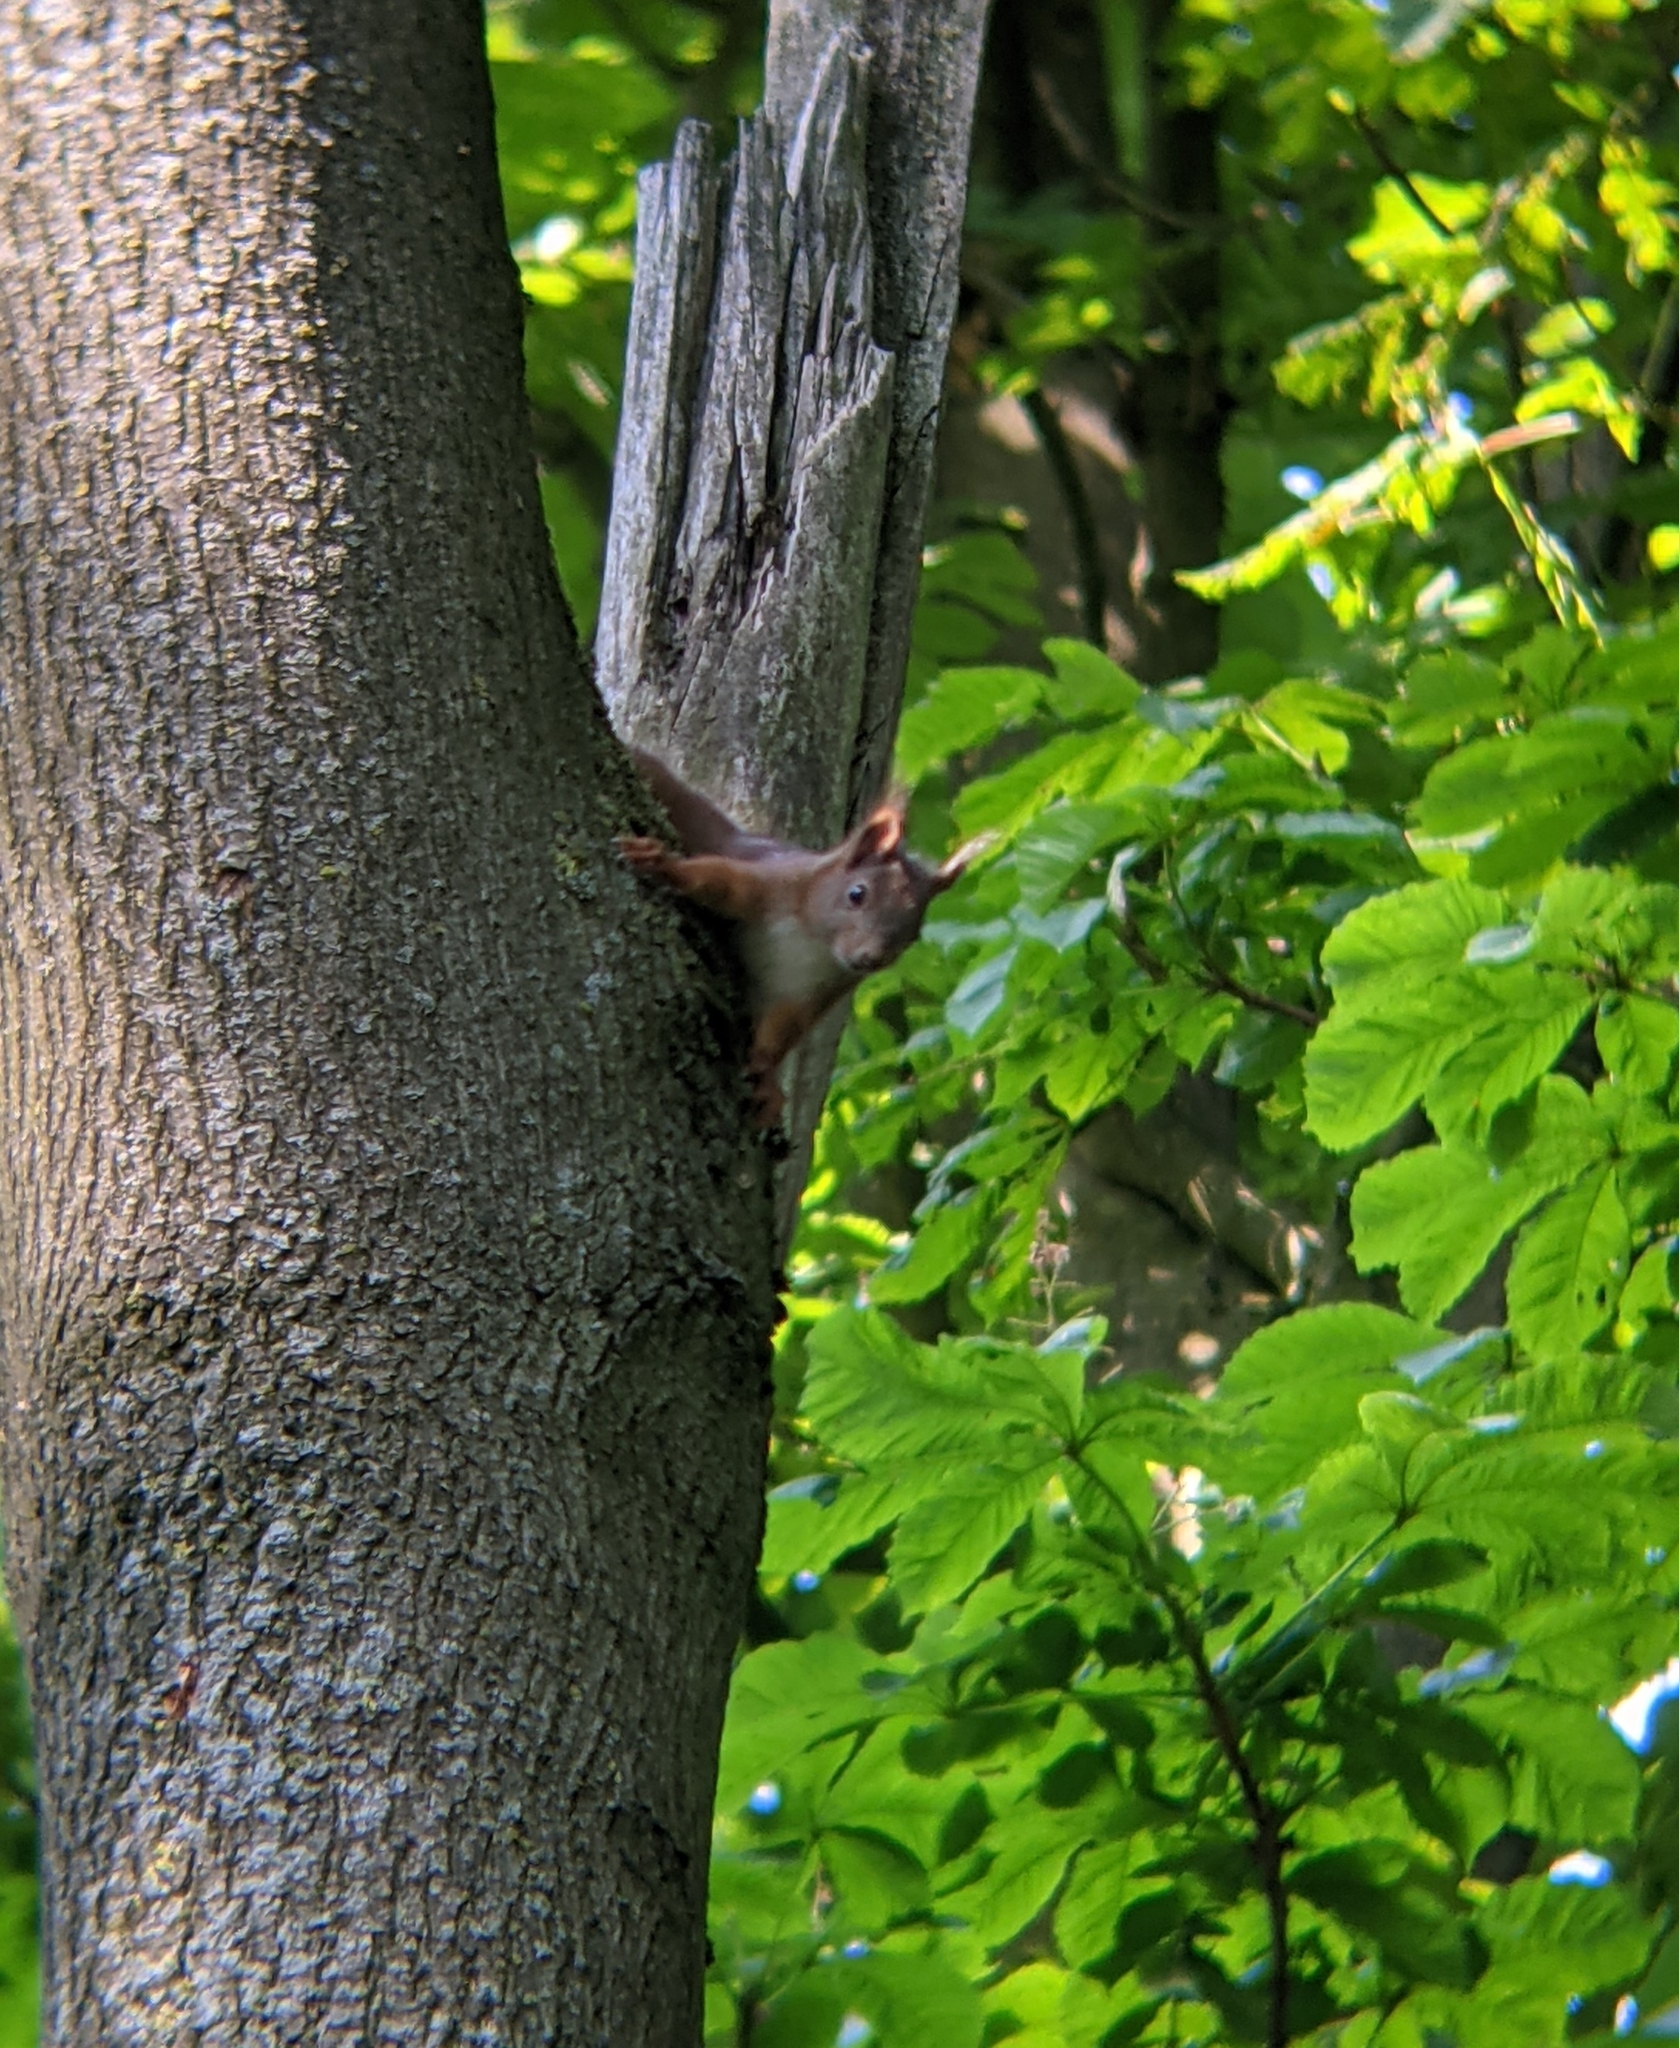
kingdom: Animalia
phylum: Chordata
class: Mammalia
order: Rodentia
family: Sciuridae
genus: Sciurus
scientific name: Sciurus vulgaris
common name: Eurasian red squirrel
